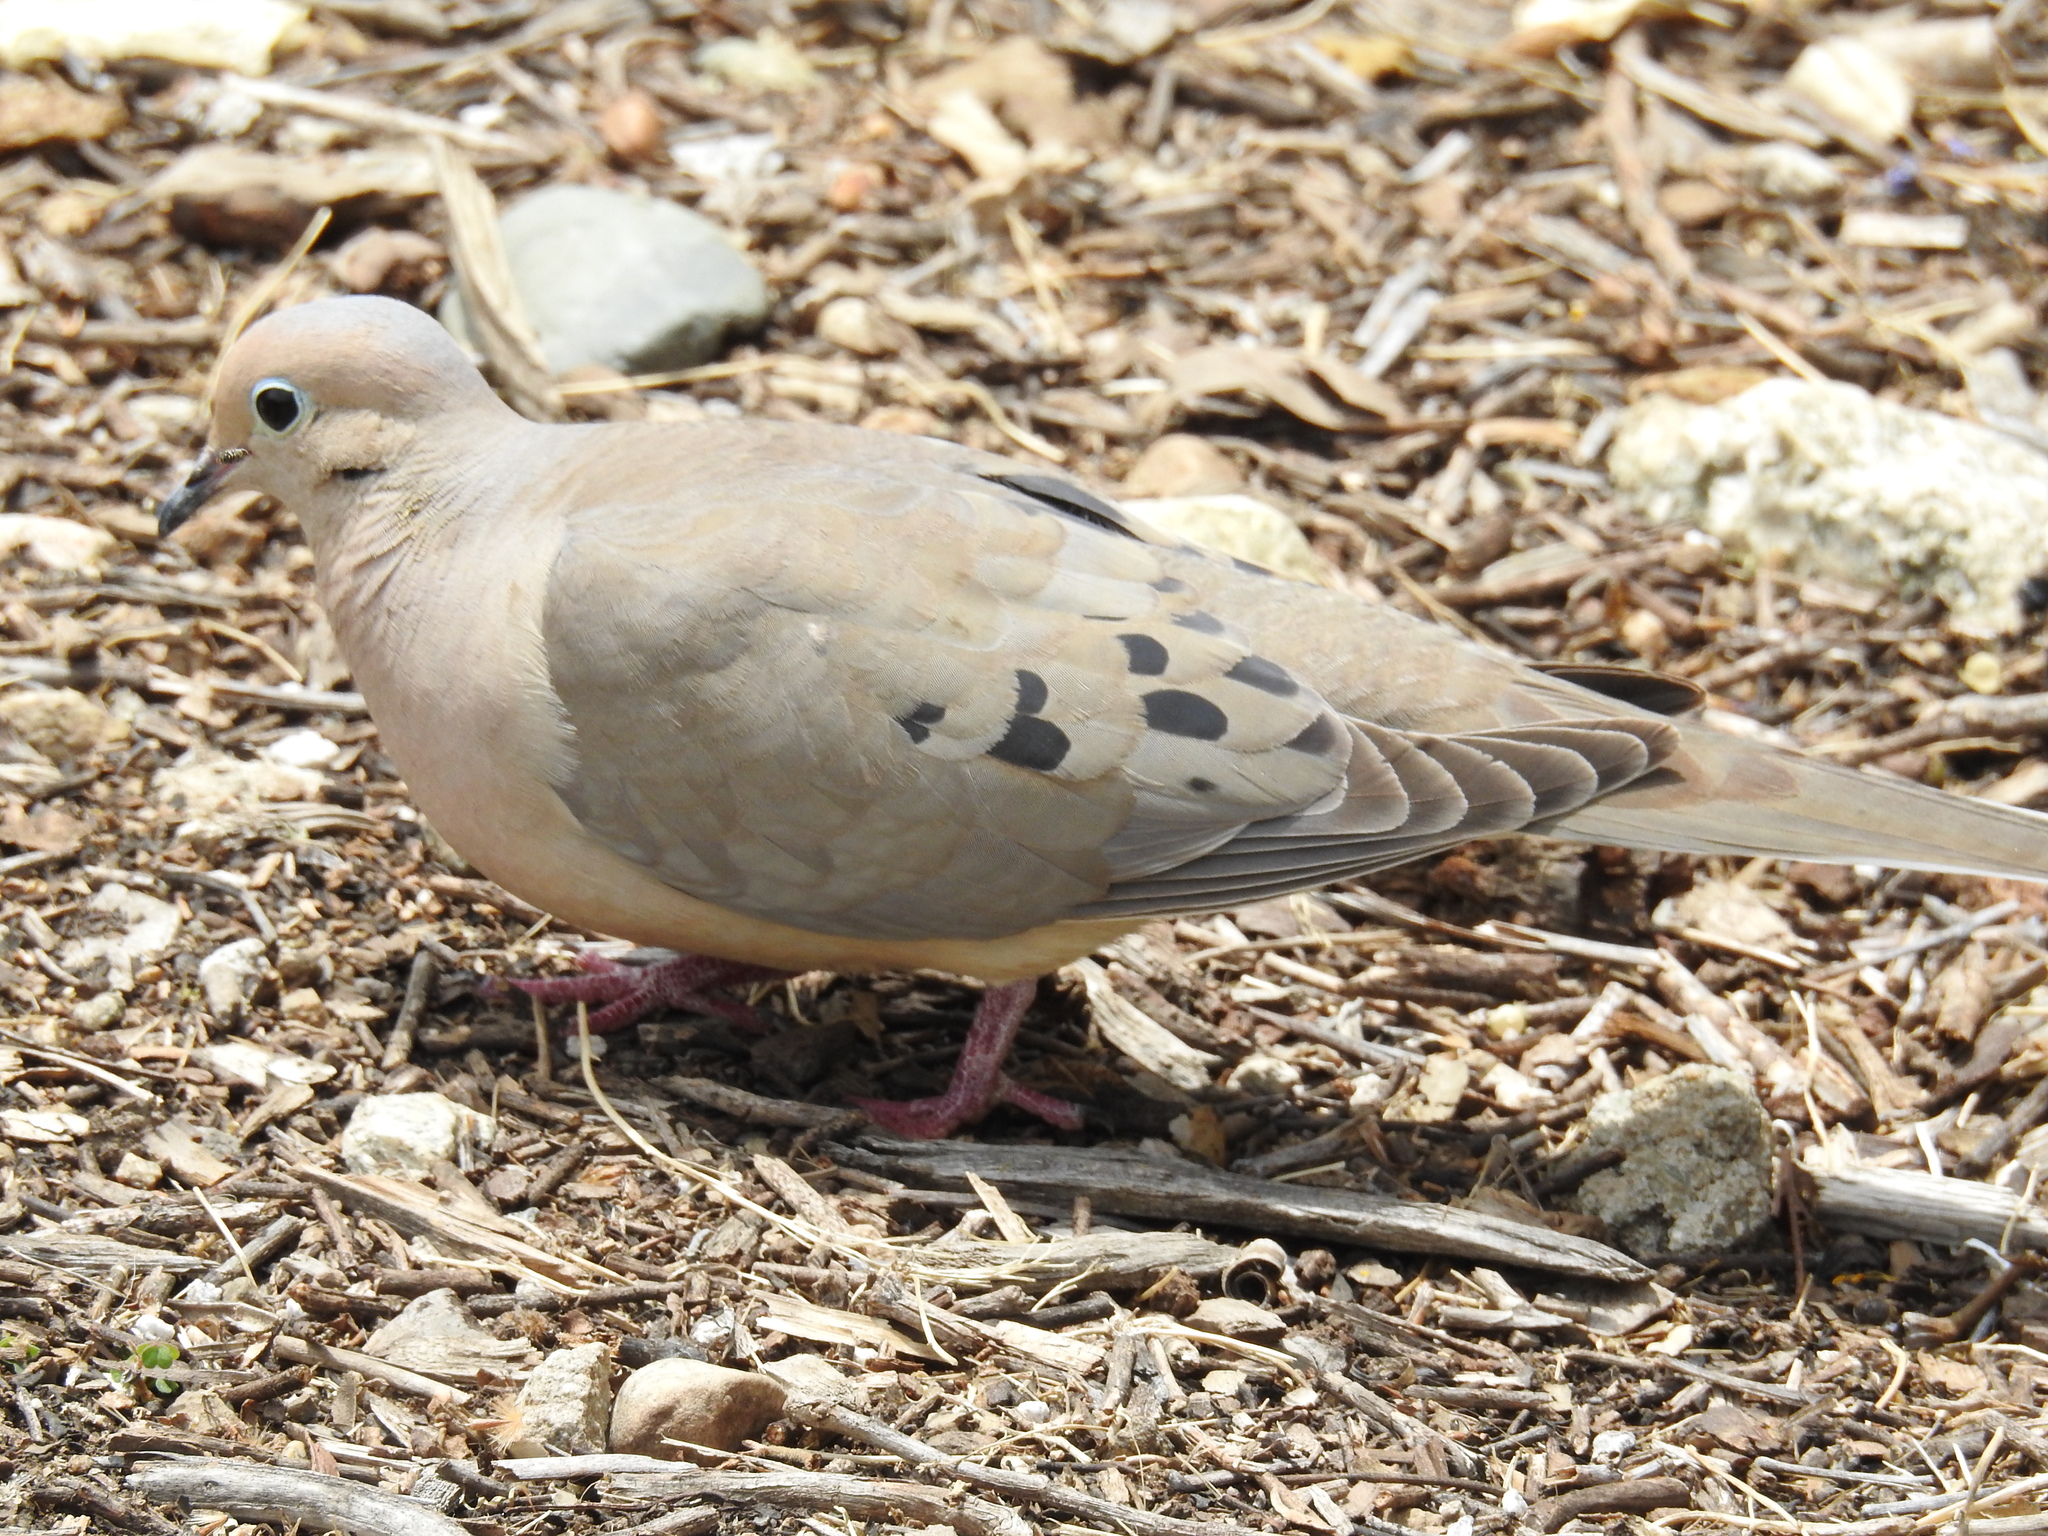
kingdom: Animalia
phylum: Chordata
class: Aves
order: Columbiformes
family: Columbidae
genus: Zenaida
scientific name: Zenaida macroura
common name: Mourning dove
